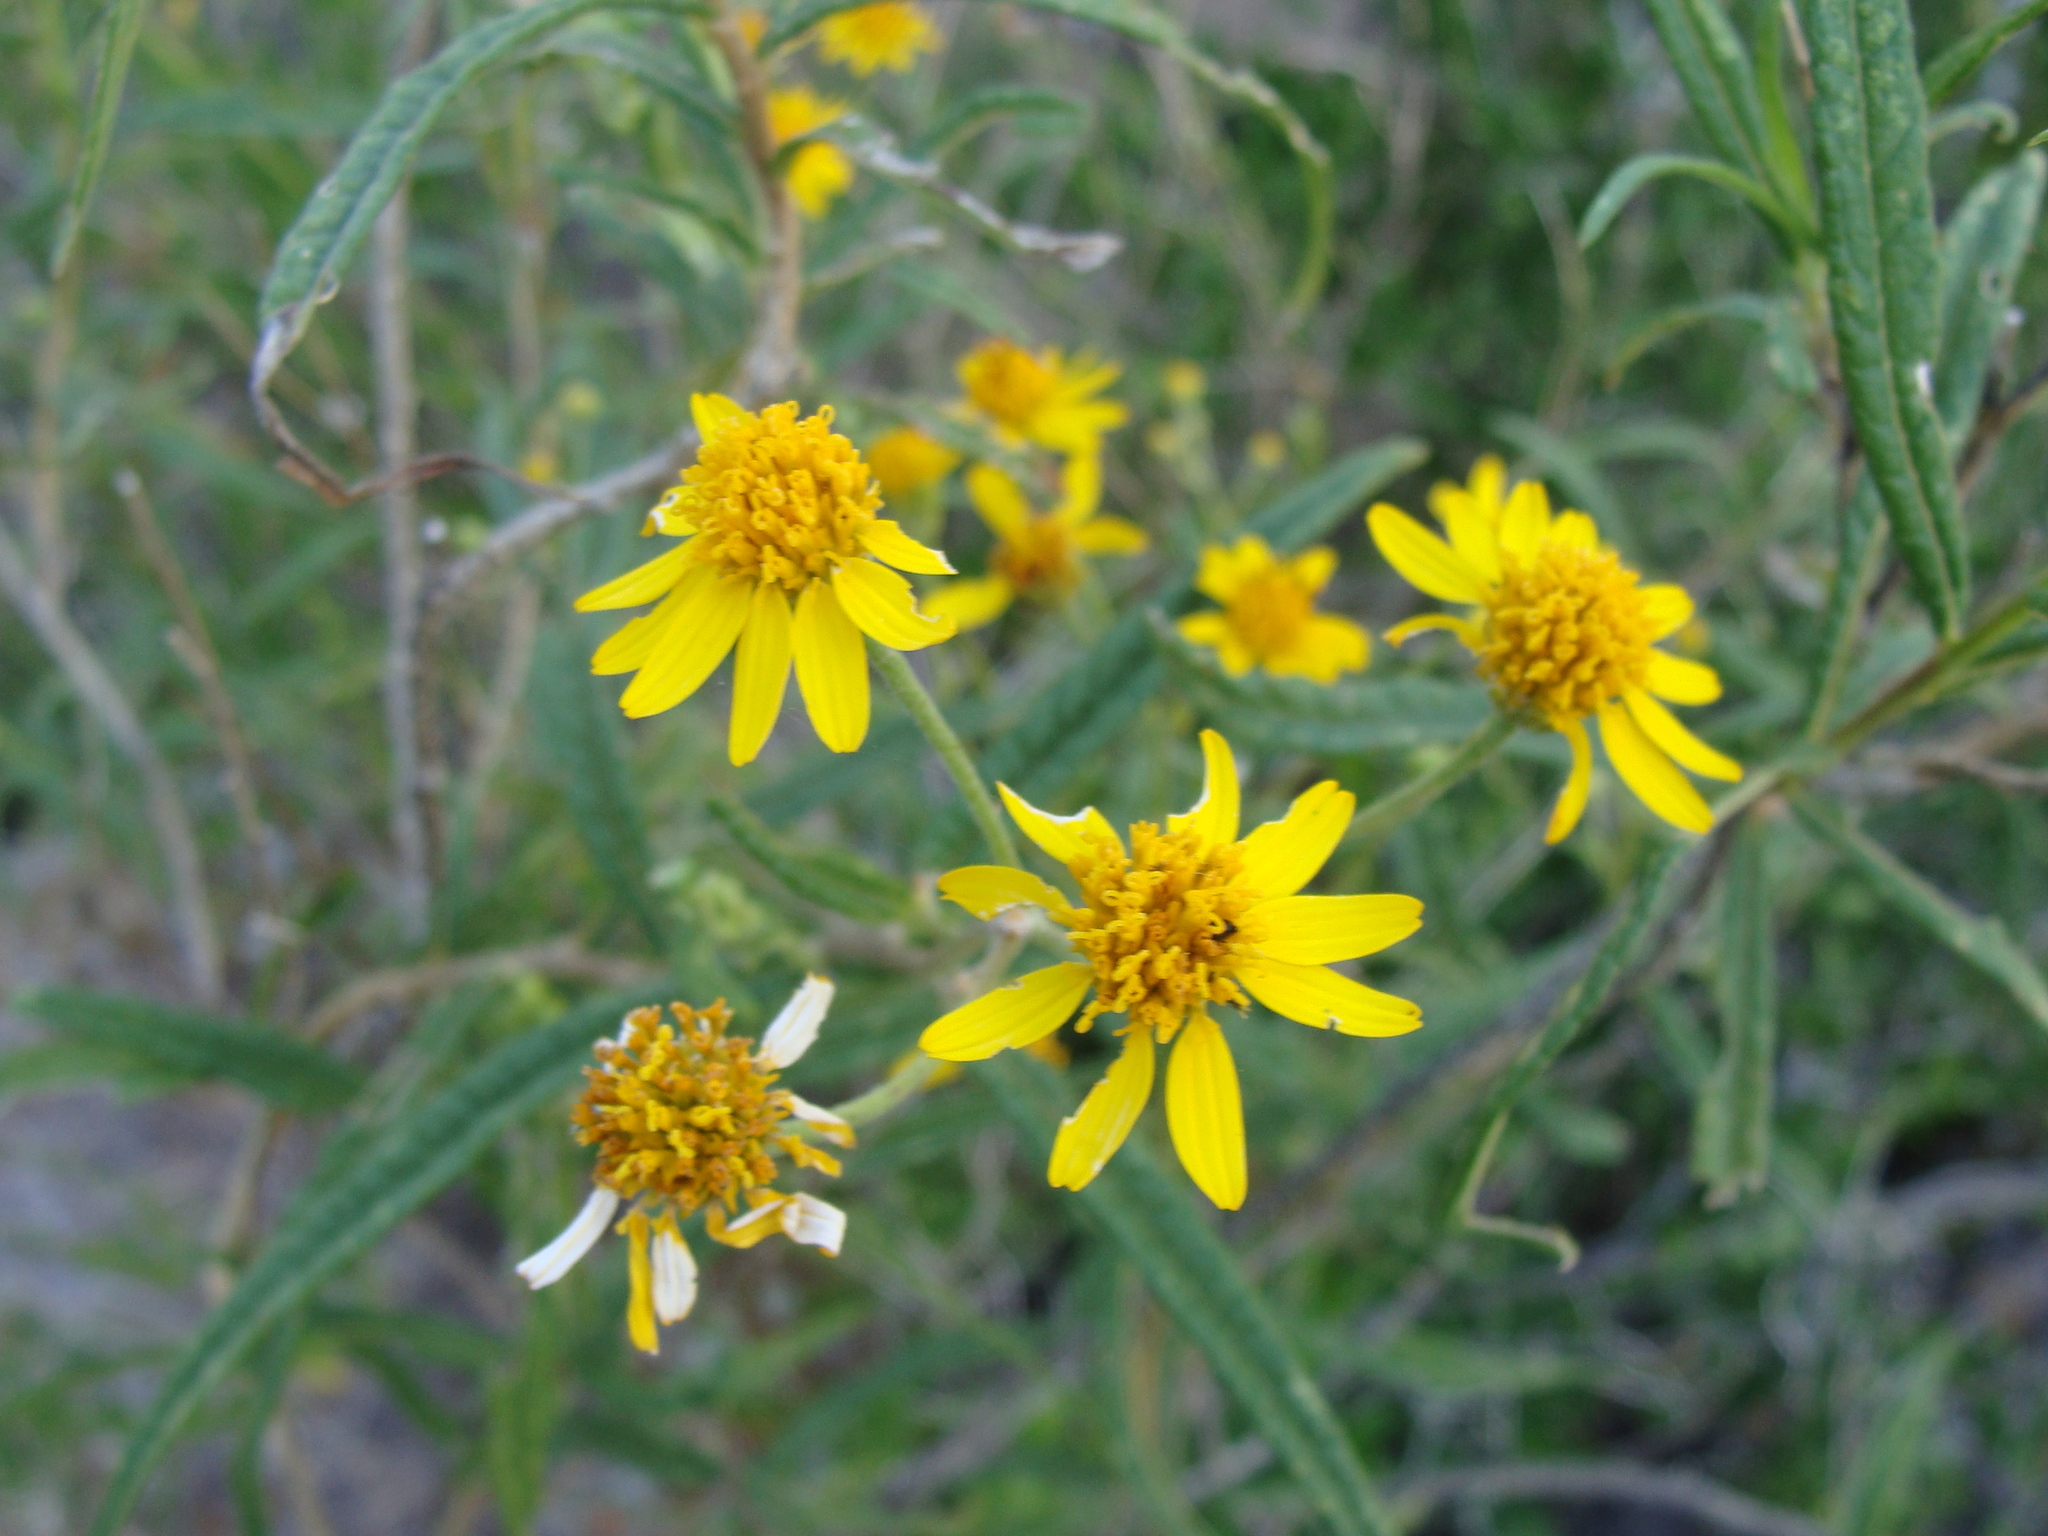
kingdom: Plantae
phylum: Tracheophyta
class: Magnoliopsida
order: Asterales
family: Asteraceae
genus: Verbesina
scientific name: Verbesina virgata
